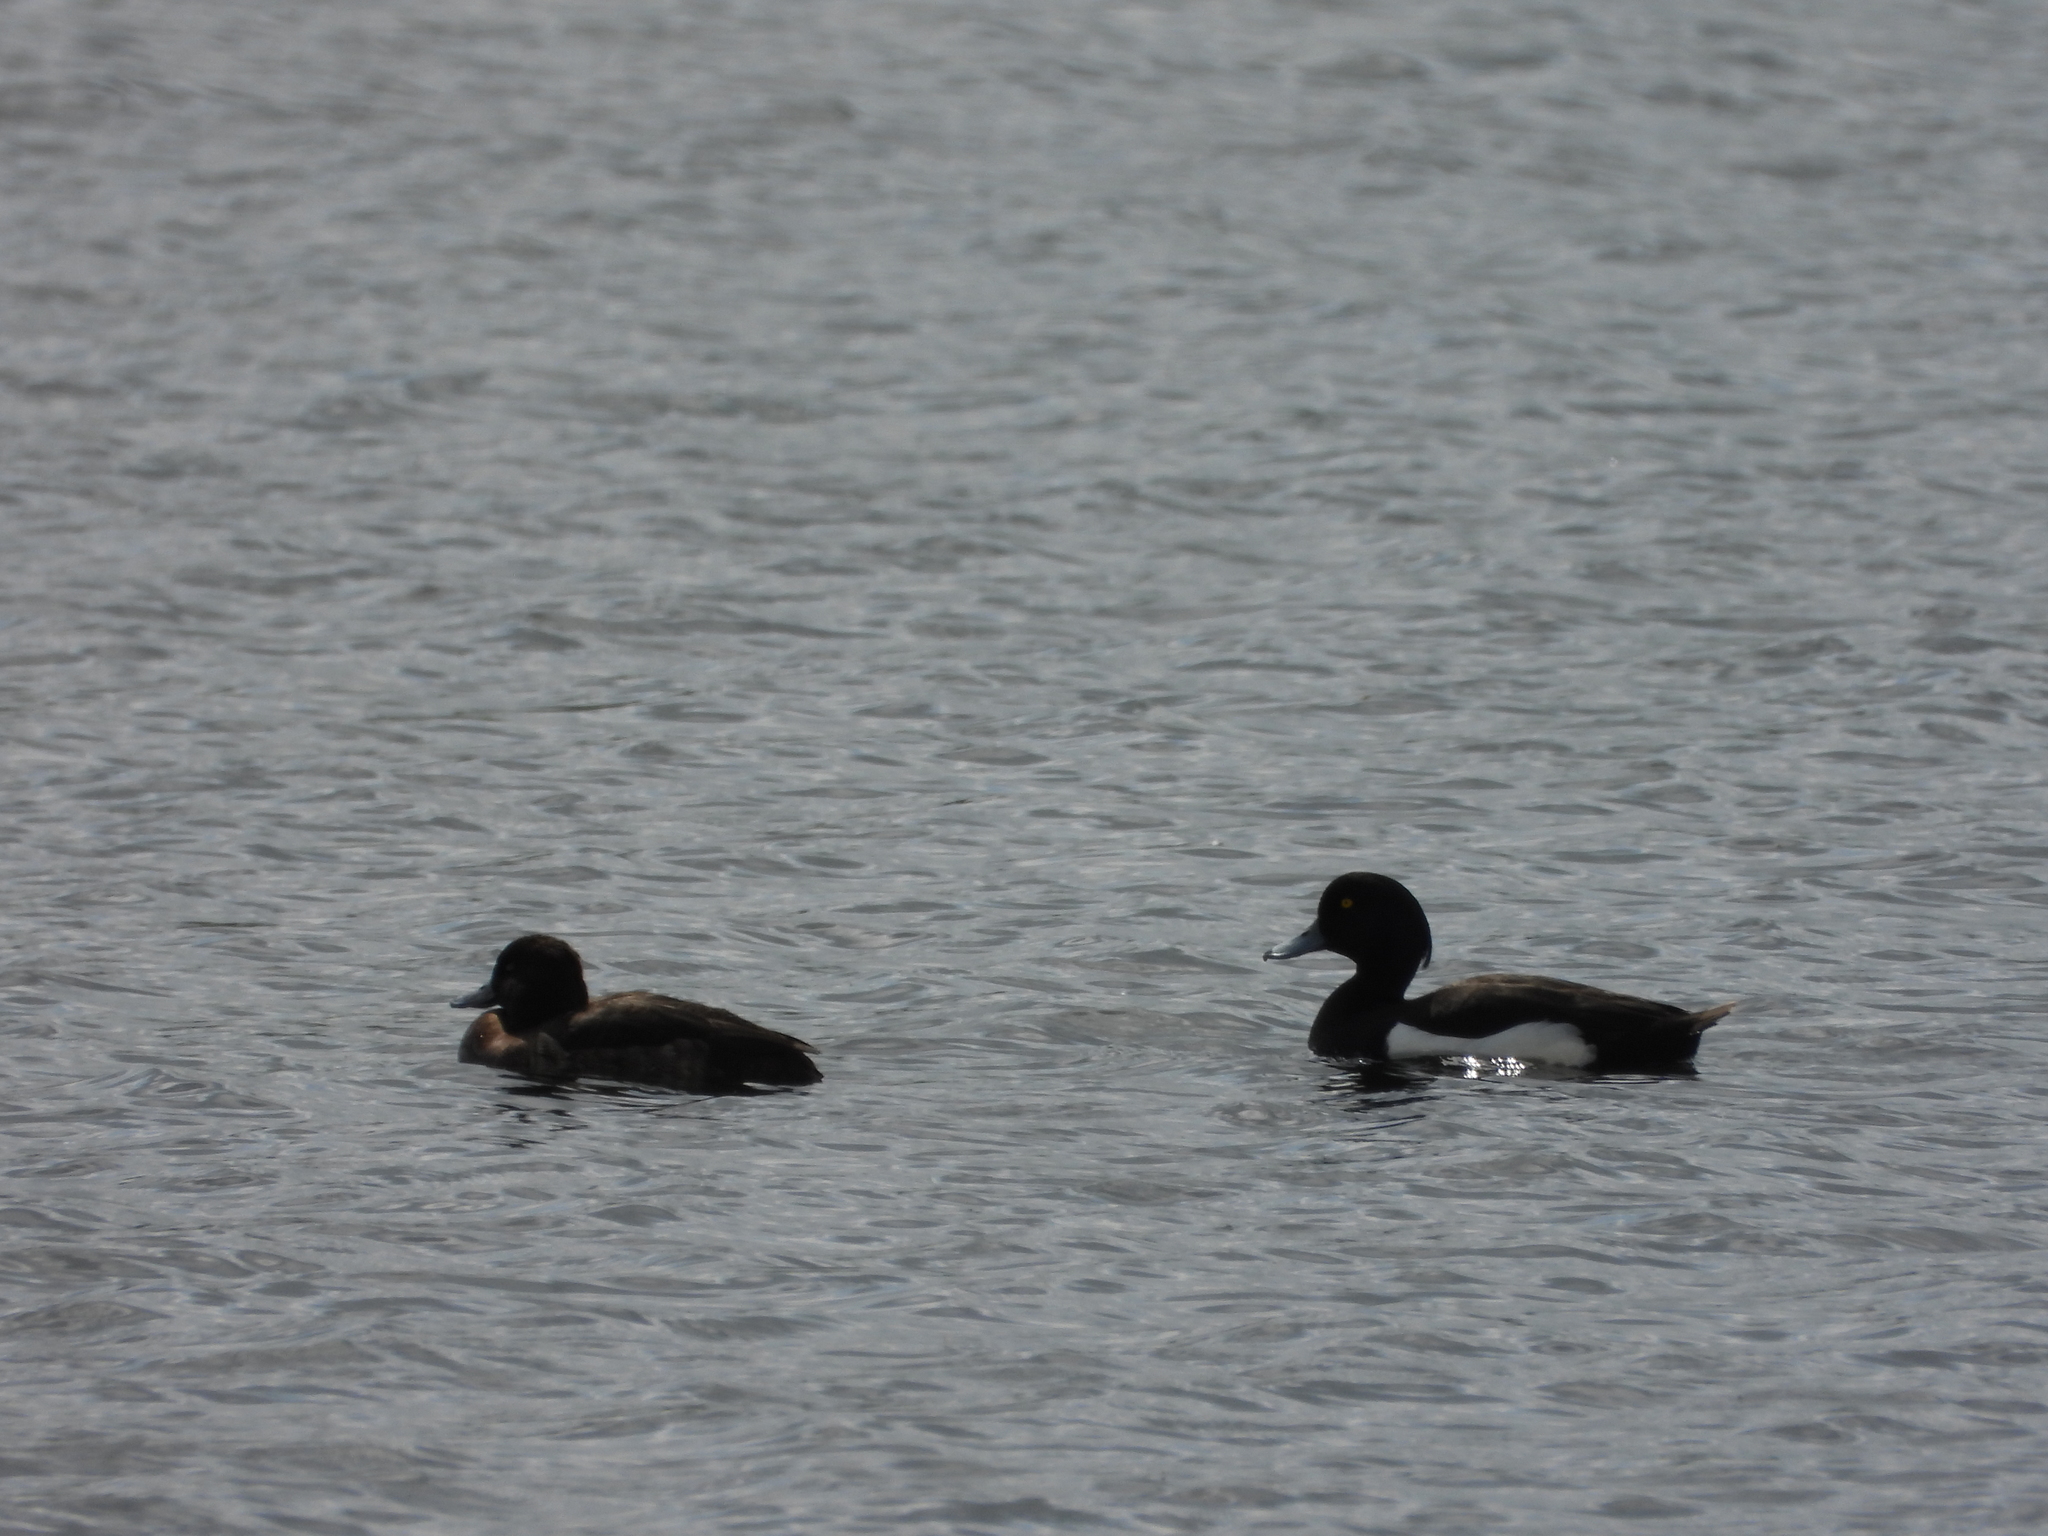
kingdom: Animalia
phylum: Chordata
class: Aves
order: Anseriformes
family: Anatidae
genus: Aythya
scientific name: Aythya fuligula
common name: Tufted duck
